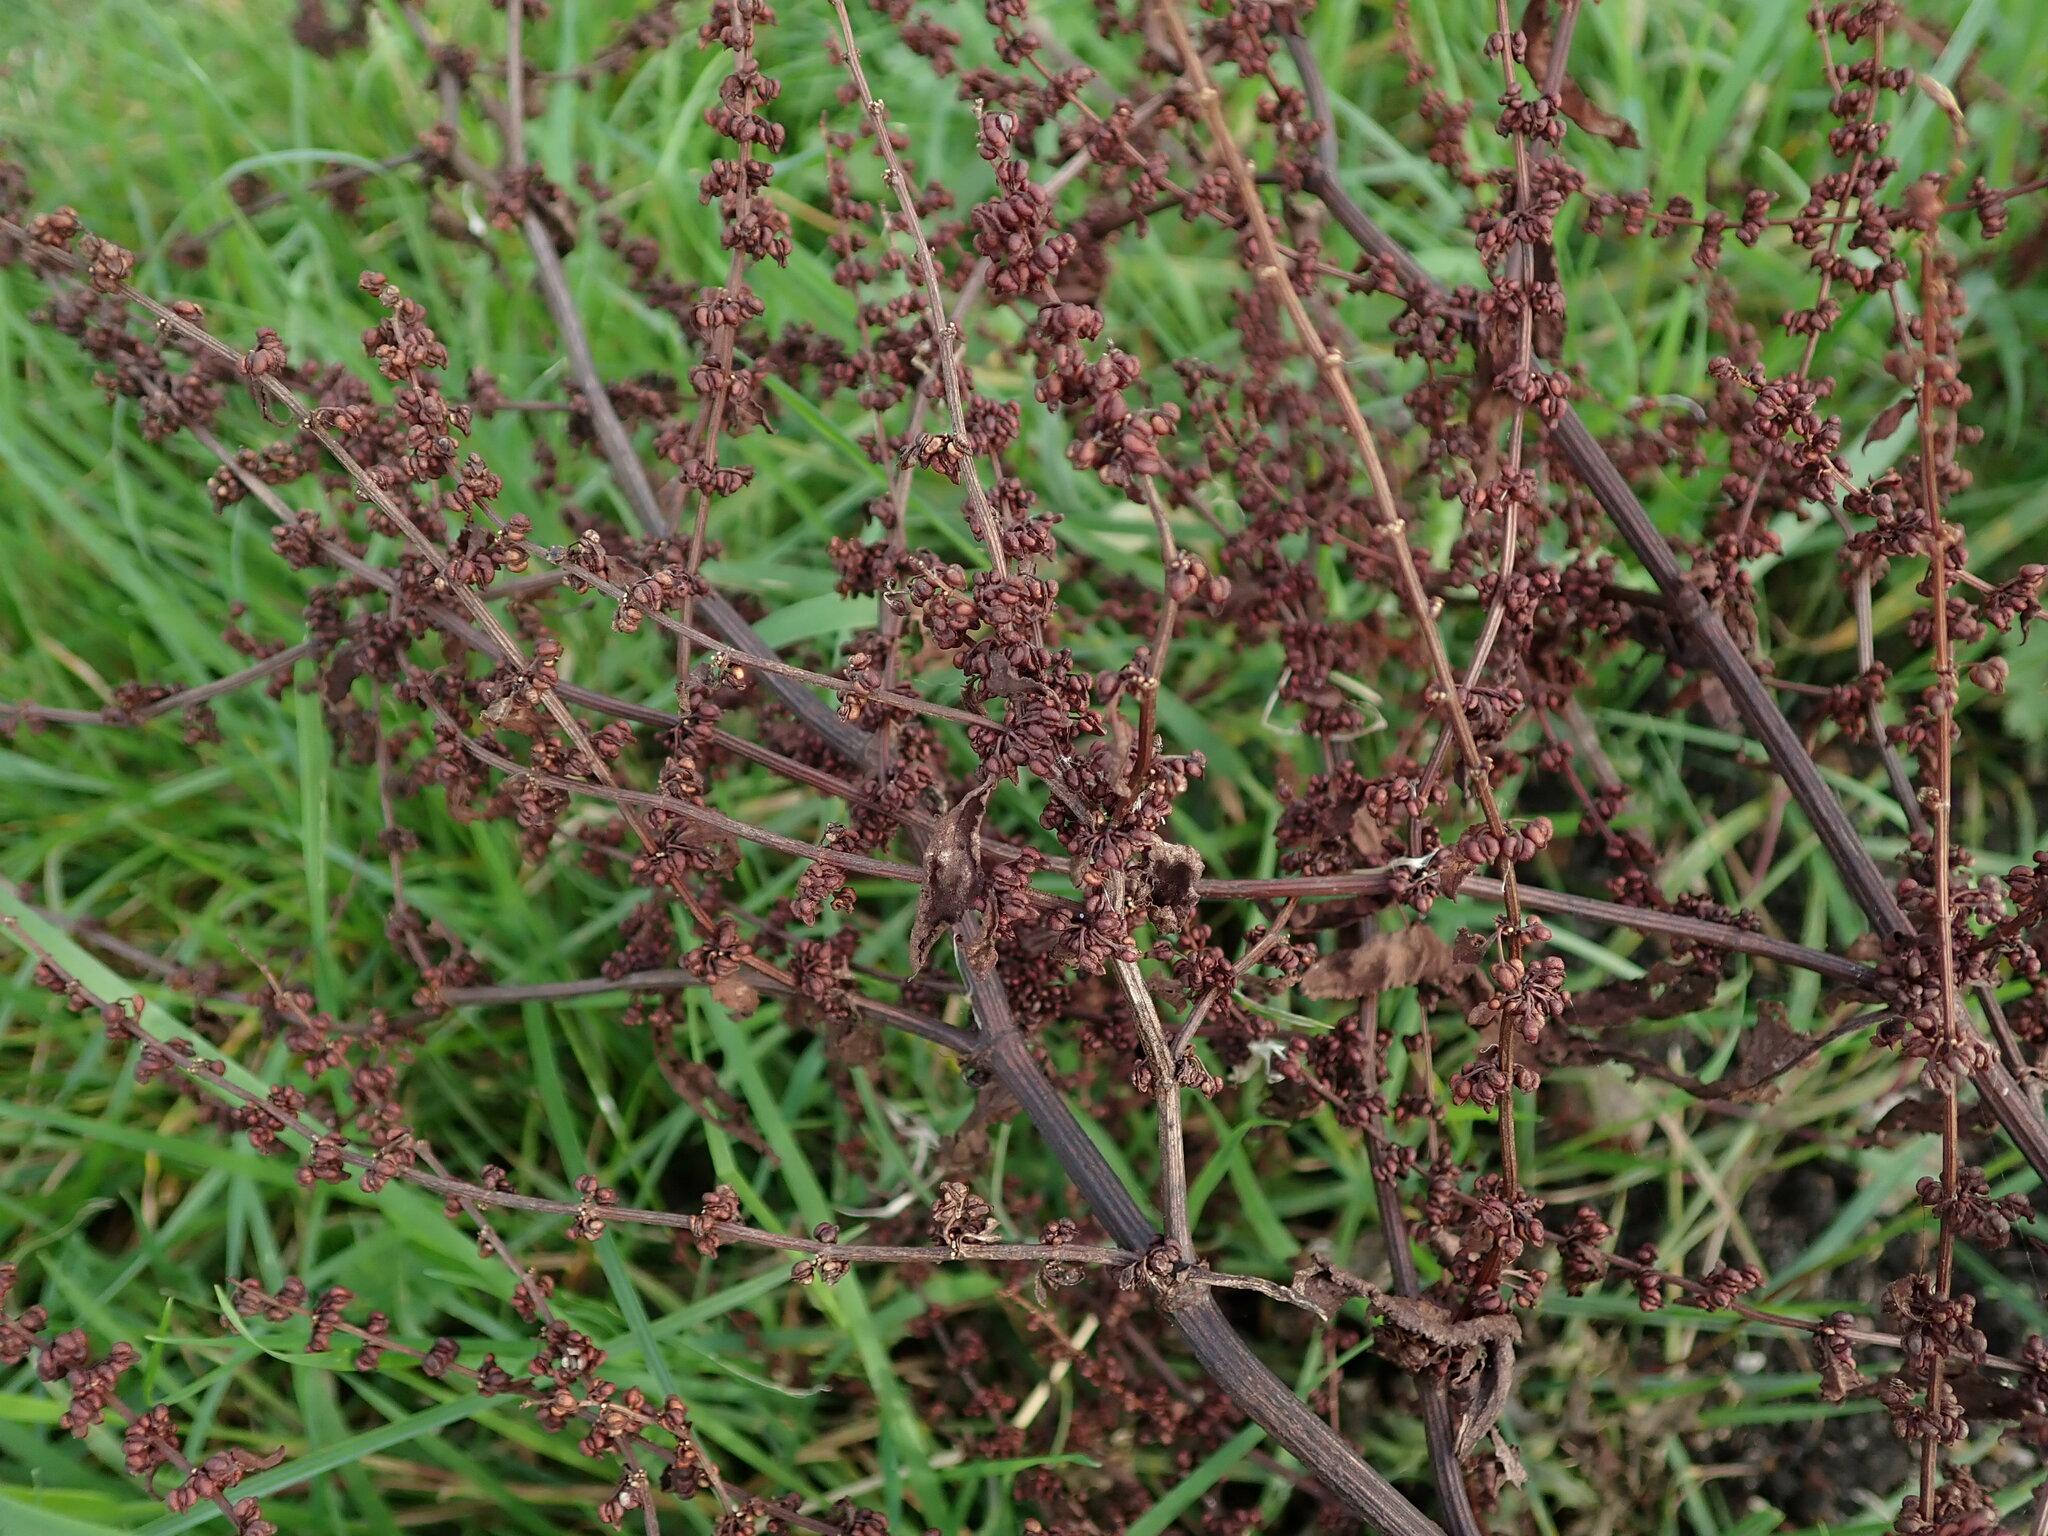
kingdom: Plantae
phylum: Tracheophyta
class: Magnoliopsida
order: Caryophyllales
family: Polygonaceae
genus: Rumex
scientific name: Rumex conglomeratus
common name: Clustered dock
